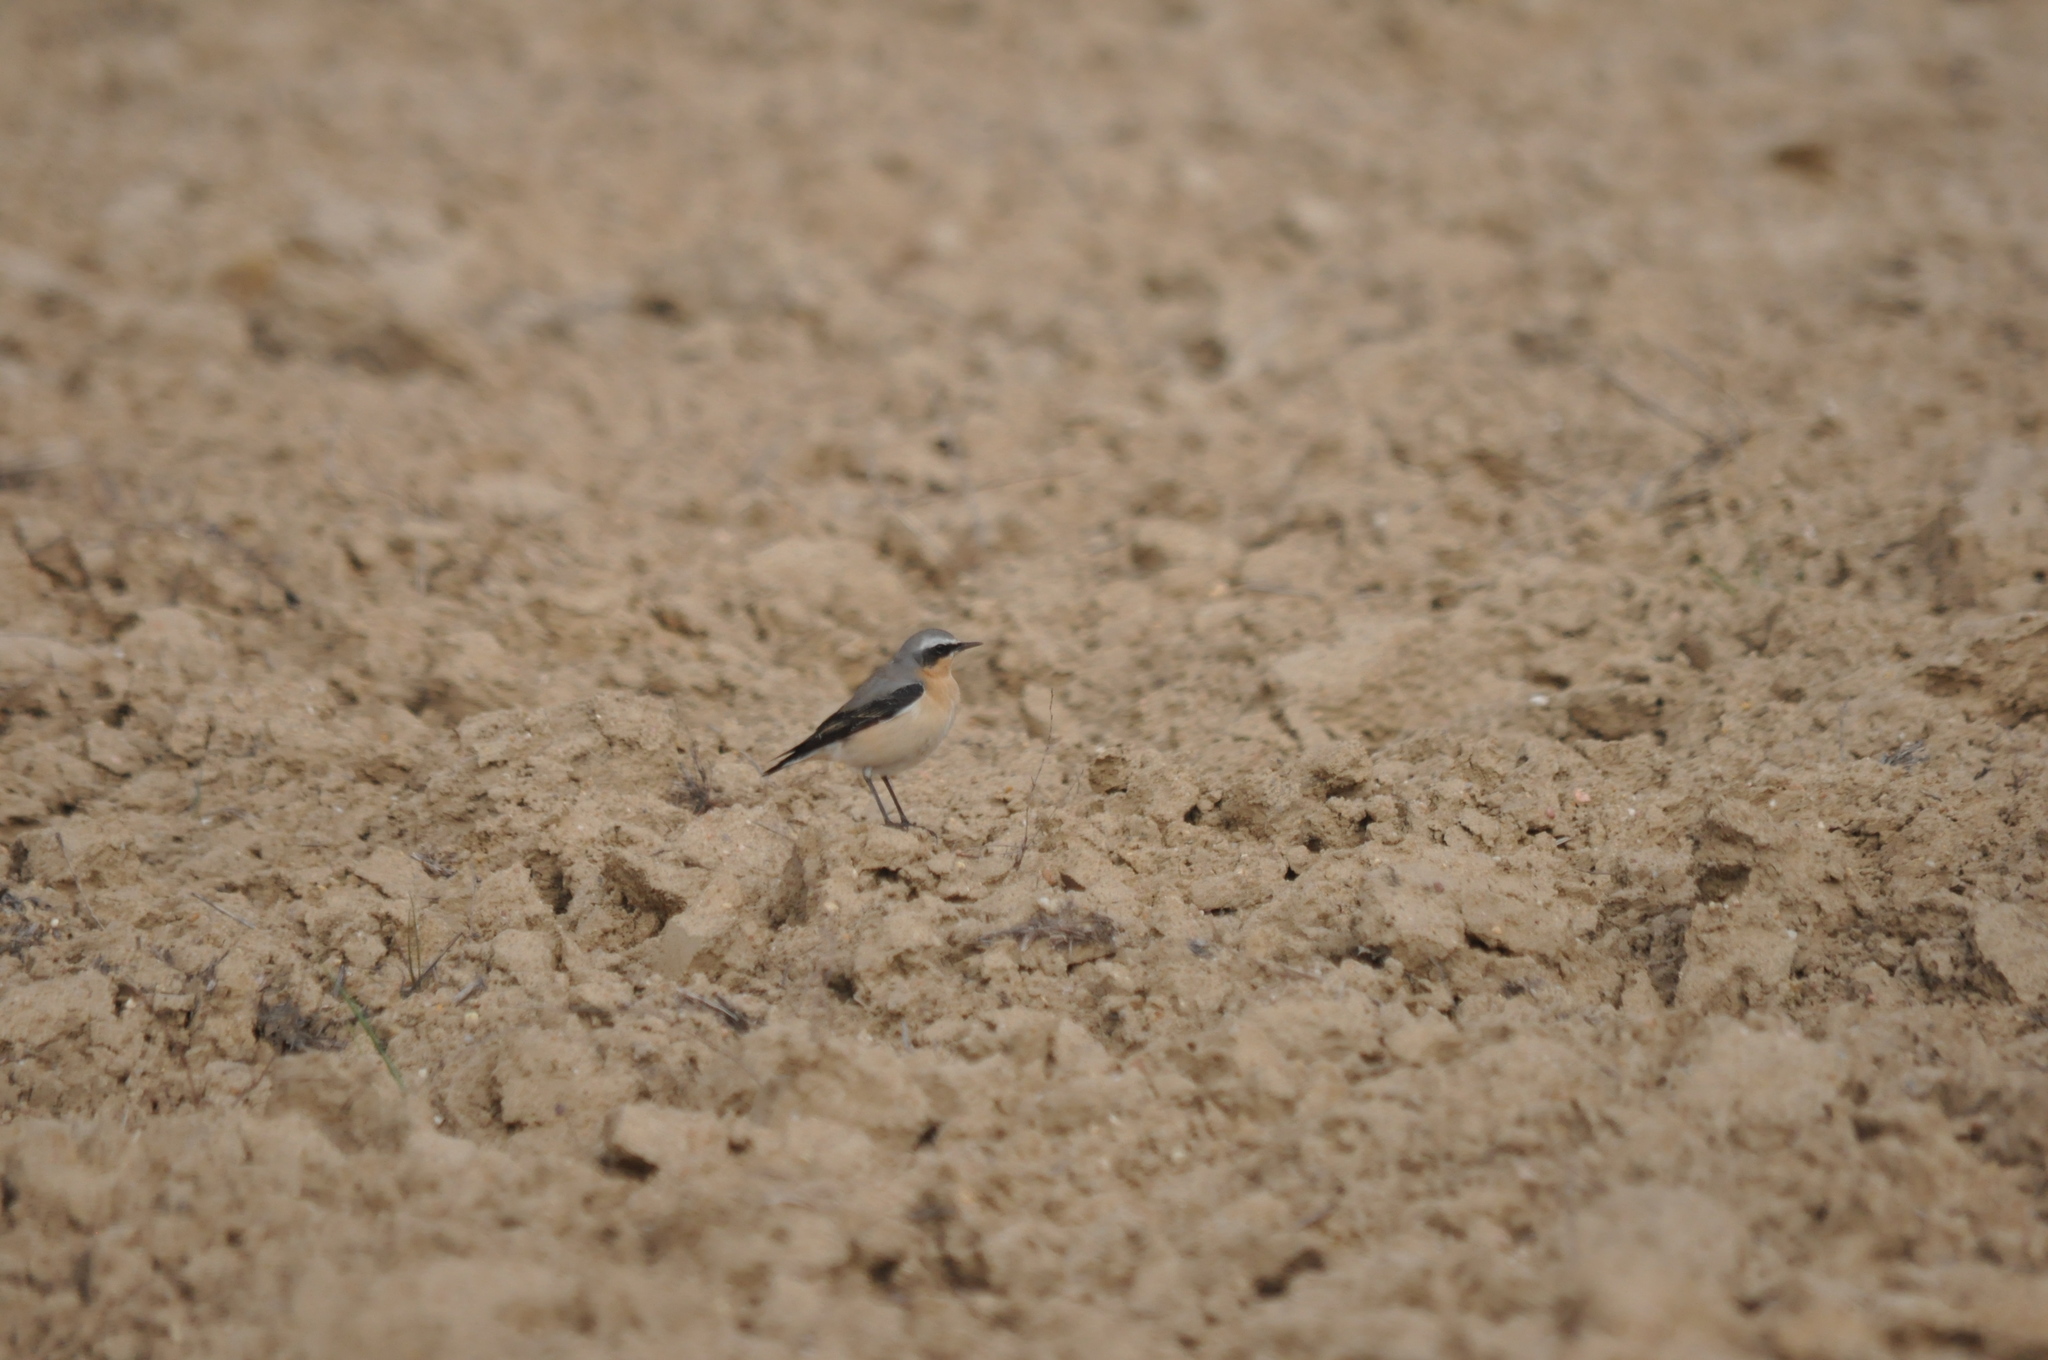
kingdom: Animalia
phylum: Chordata
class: Aves
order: Passeriformes
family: Muscicapidae
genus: Oenanthe
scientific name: Oenanthe oenanthe
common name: Northern wheatear
